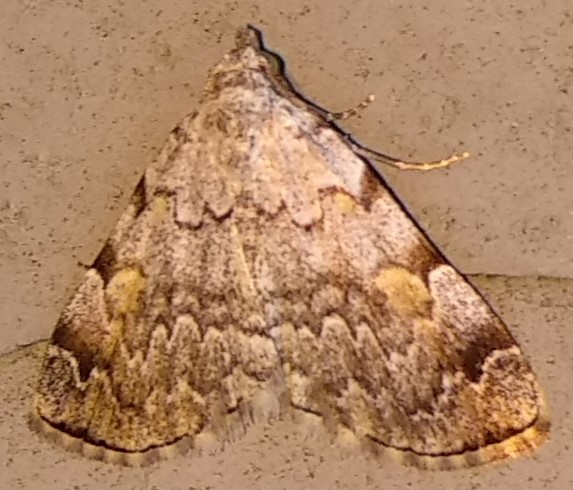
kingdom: Animalia
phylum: Arthropoda
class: Insecta
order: Lepidoptera
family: Erebidae
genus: Idia
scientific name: Idia americalis
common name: American idia moth
